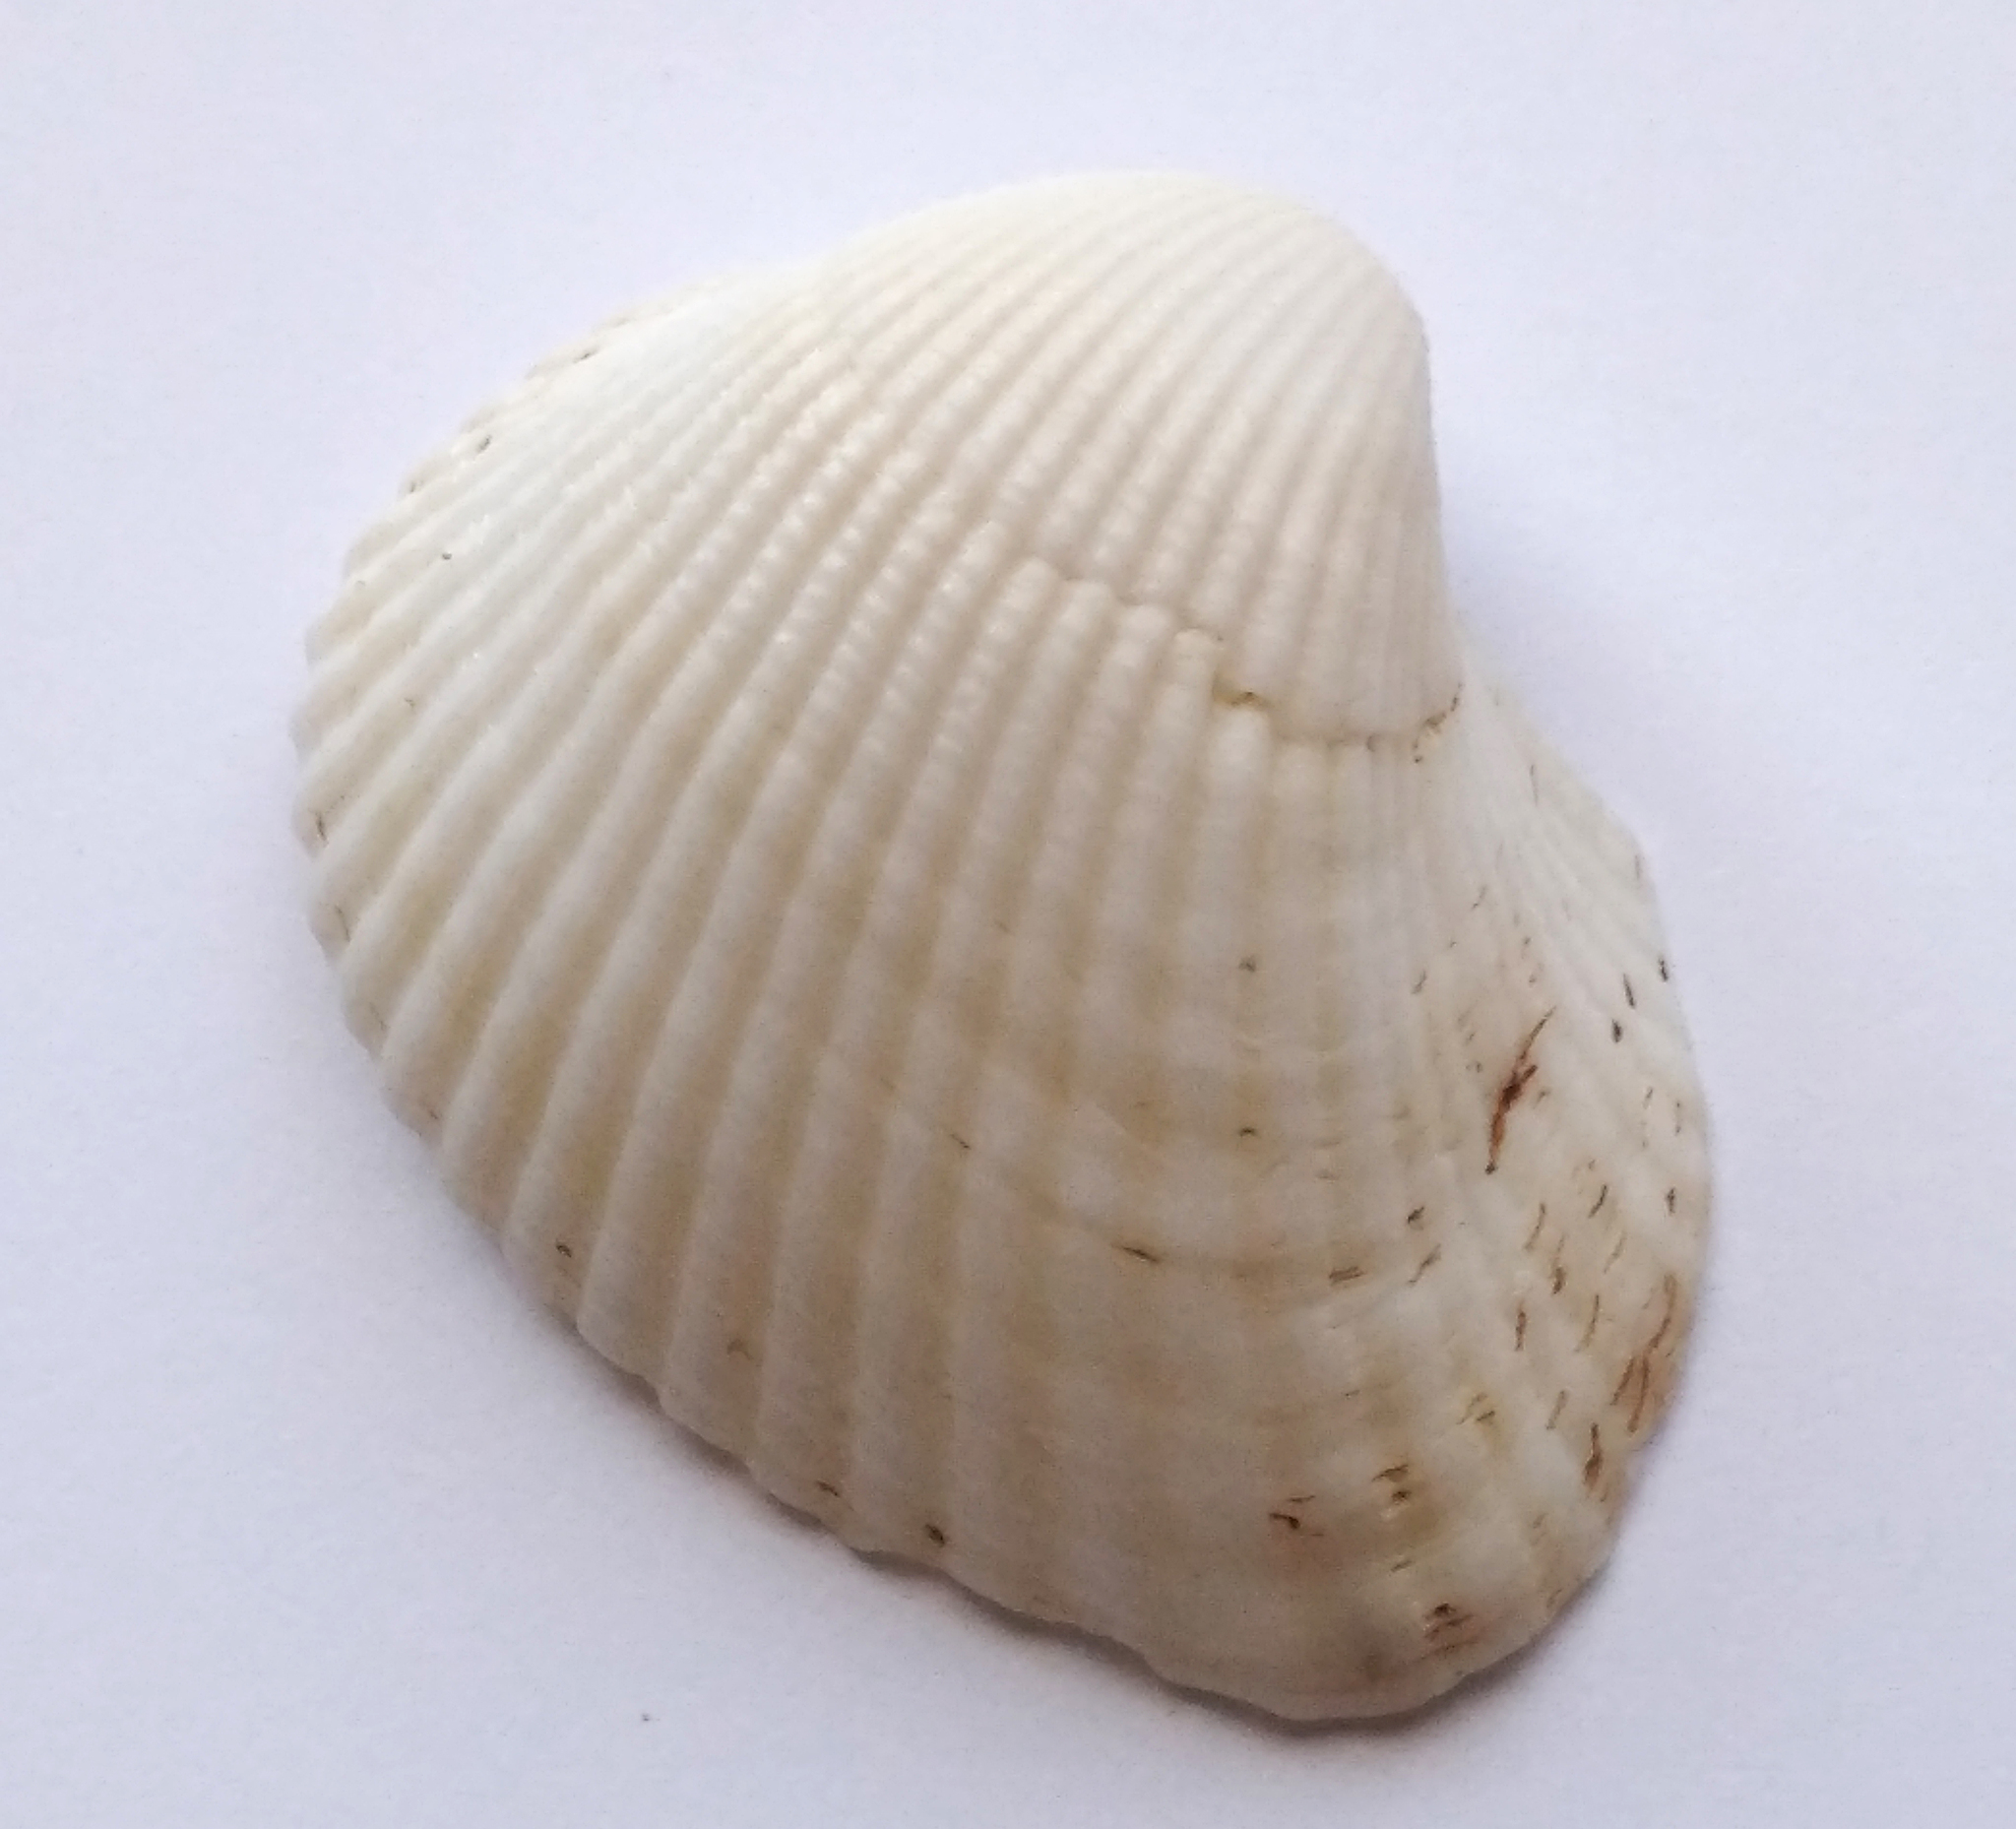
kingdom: Animalia
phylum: Mollusca
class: Bivalvia
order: Arcida
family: Arcidae
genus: Anadara
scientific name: Anadara kagoshimensis
